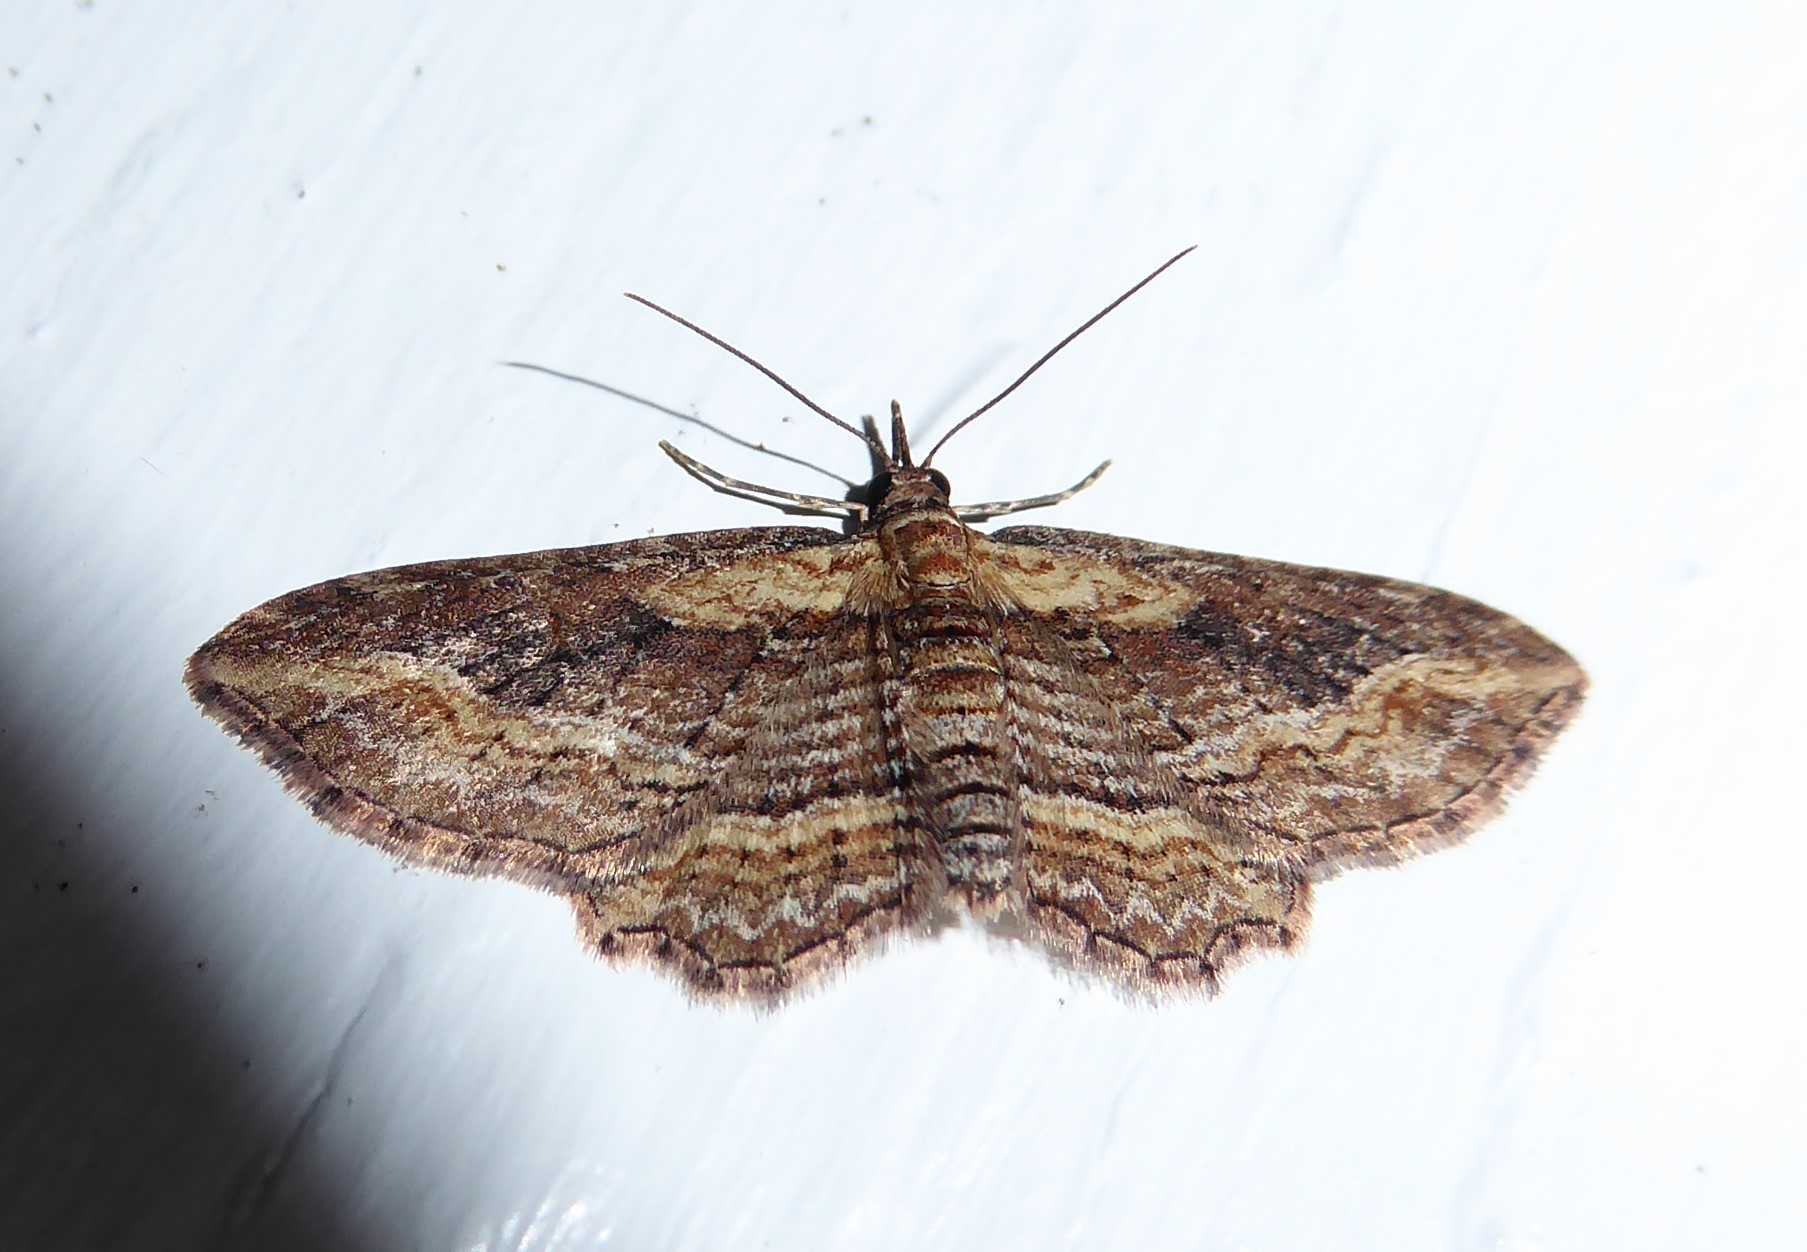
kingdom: Animalia
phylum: Arthropoda
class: Insecta
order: Lepidoptera
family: Geometridae
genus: Chloroclystis
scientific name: Chloroclystis filata
